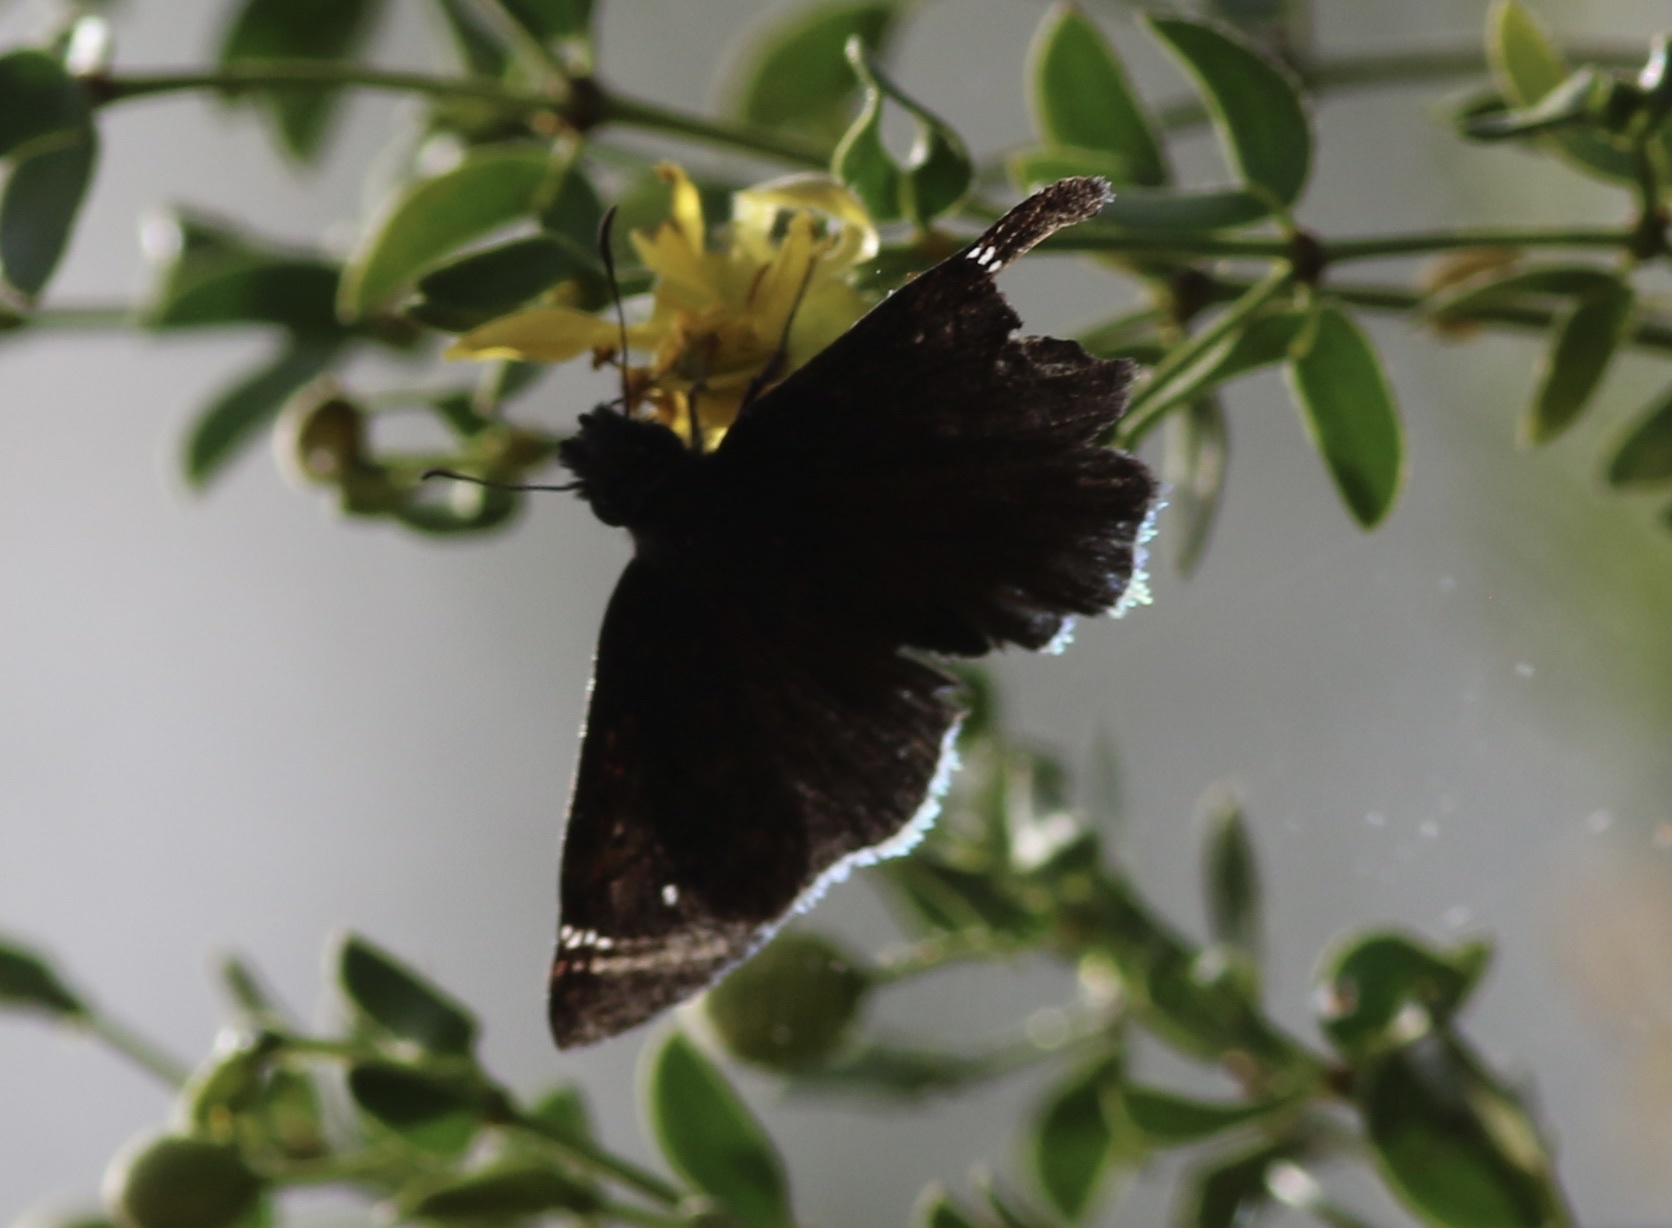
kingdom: Animalia
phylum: Arthropoda
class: Insecta
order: Lepidoptera
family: Hesperiidae
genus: Erynnis
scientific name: Erynnis funeralis
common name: Funereal duskywing
